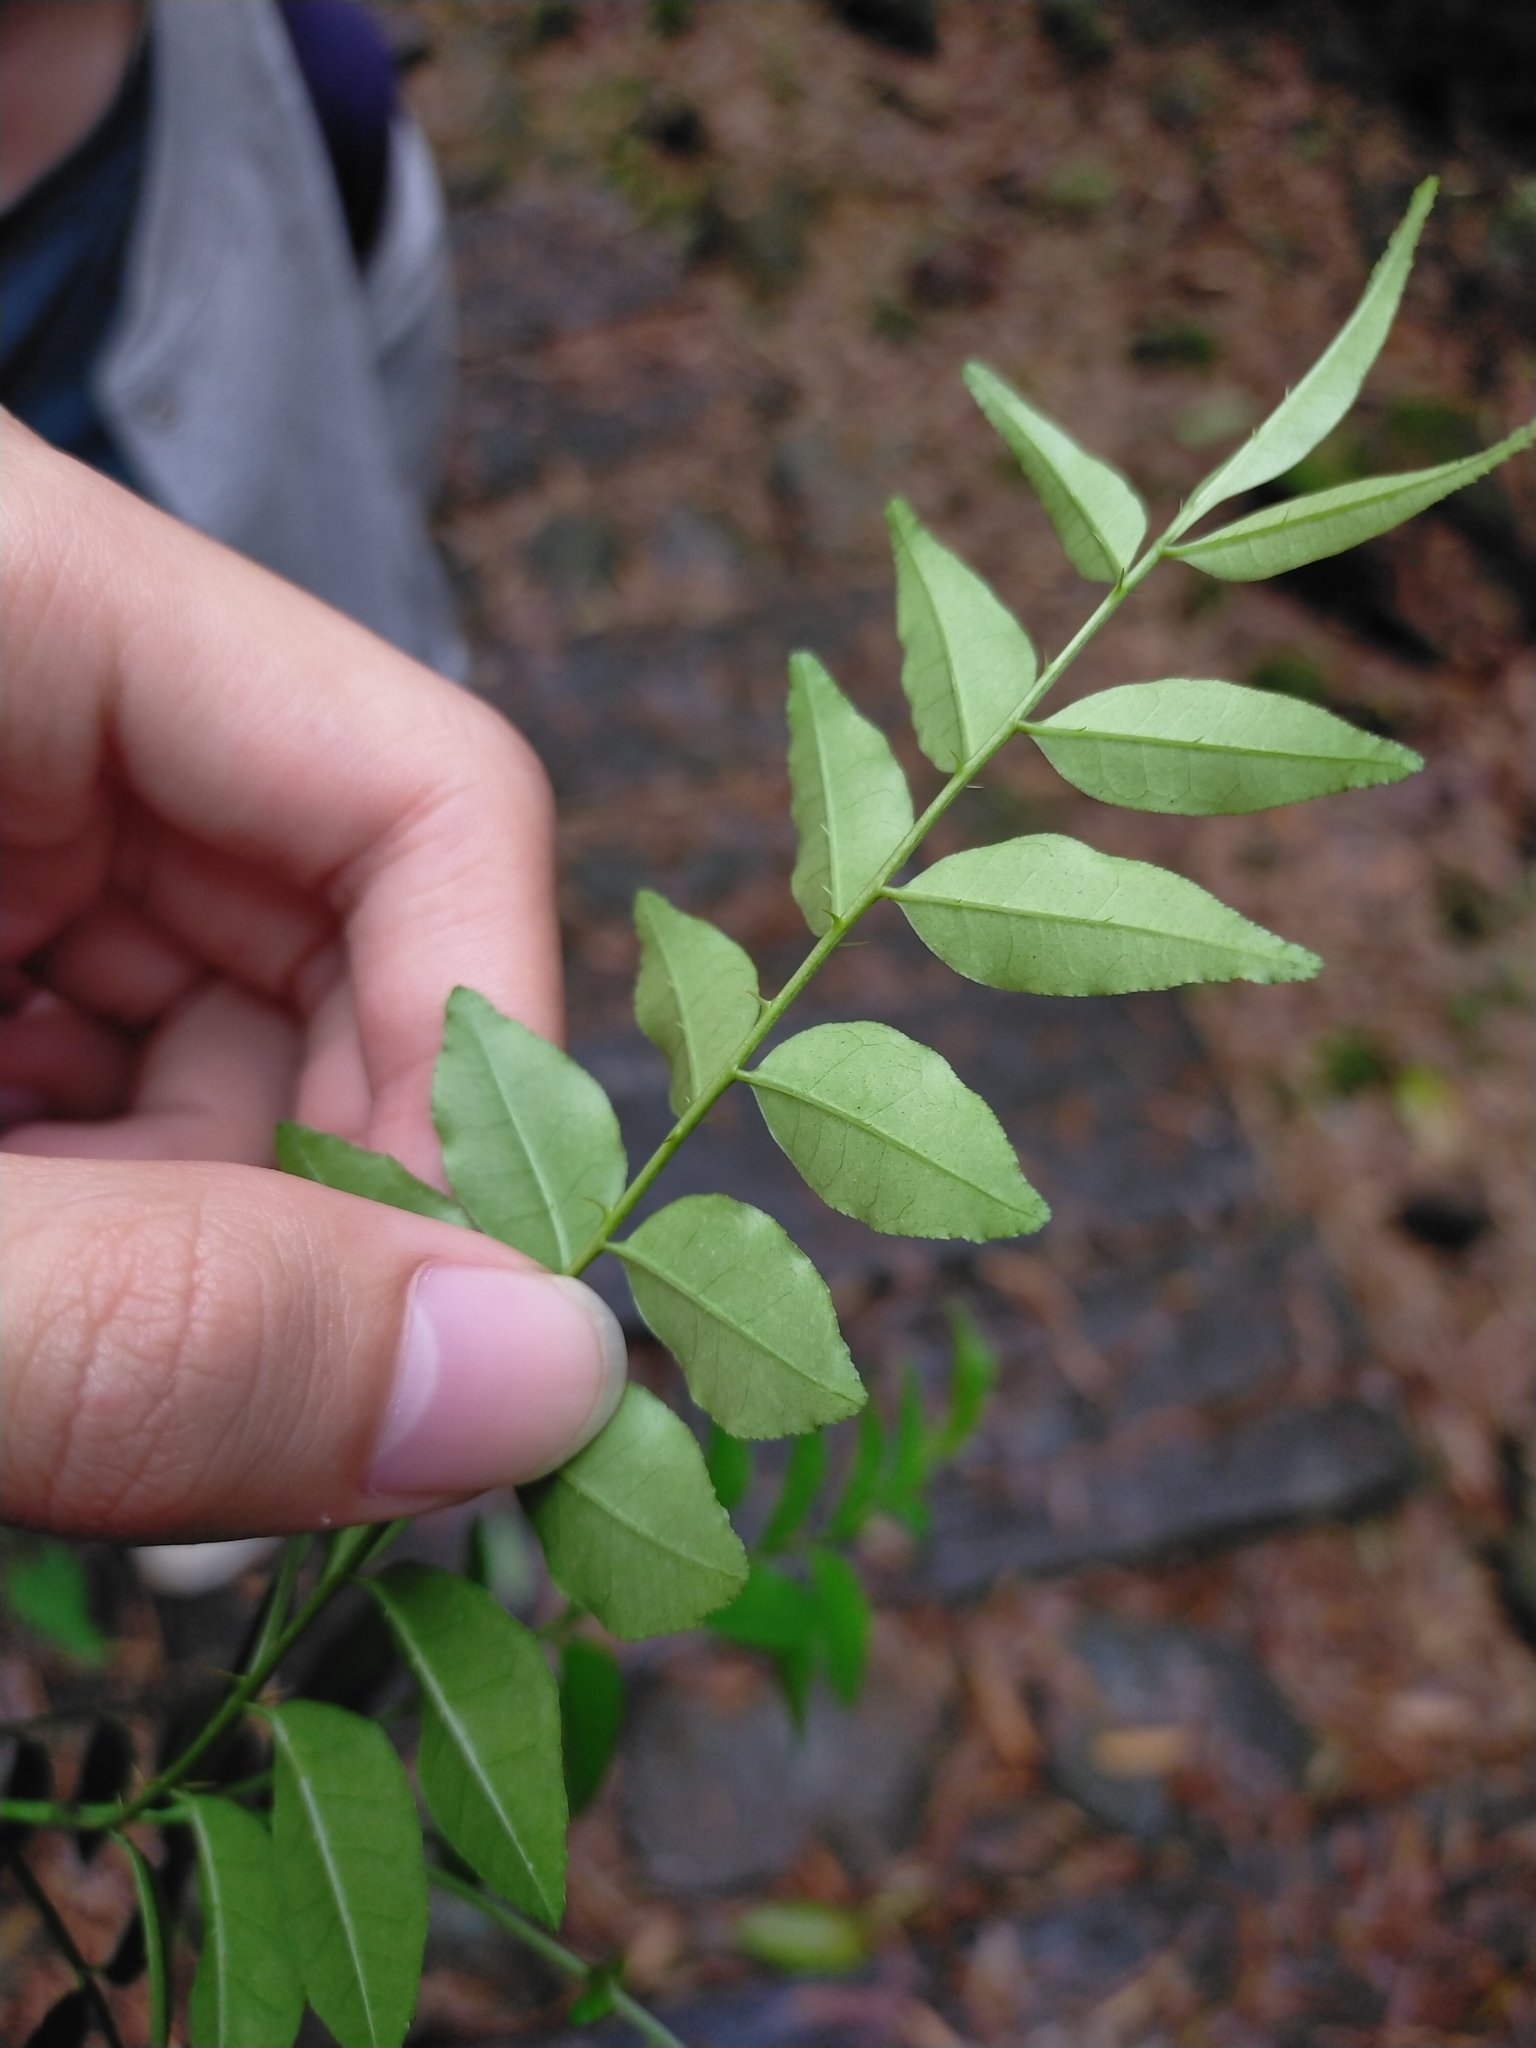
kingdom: Plantae
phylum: Tracheophyta
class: Magnoliopsida
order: Sapindales
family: Rutaceae
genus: Zanthoxylum
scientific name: Zanthoxylum scandens
